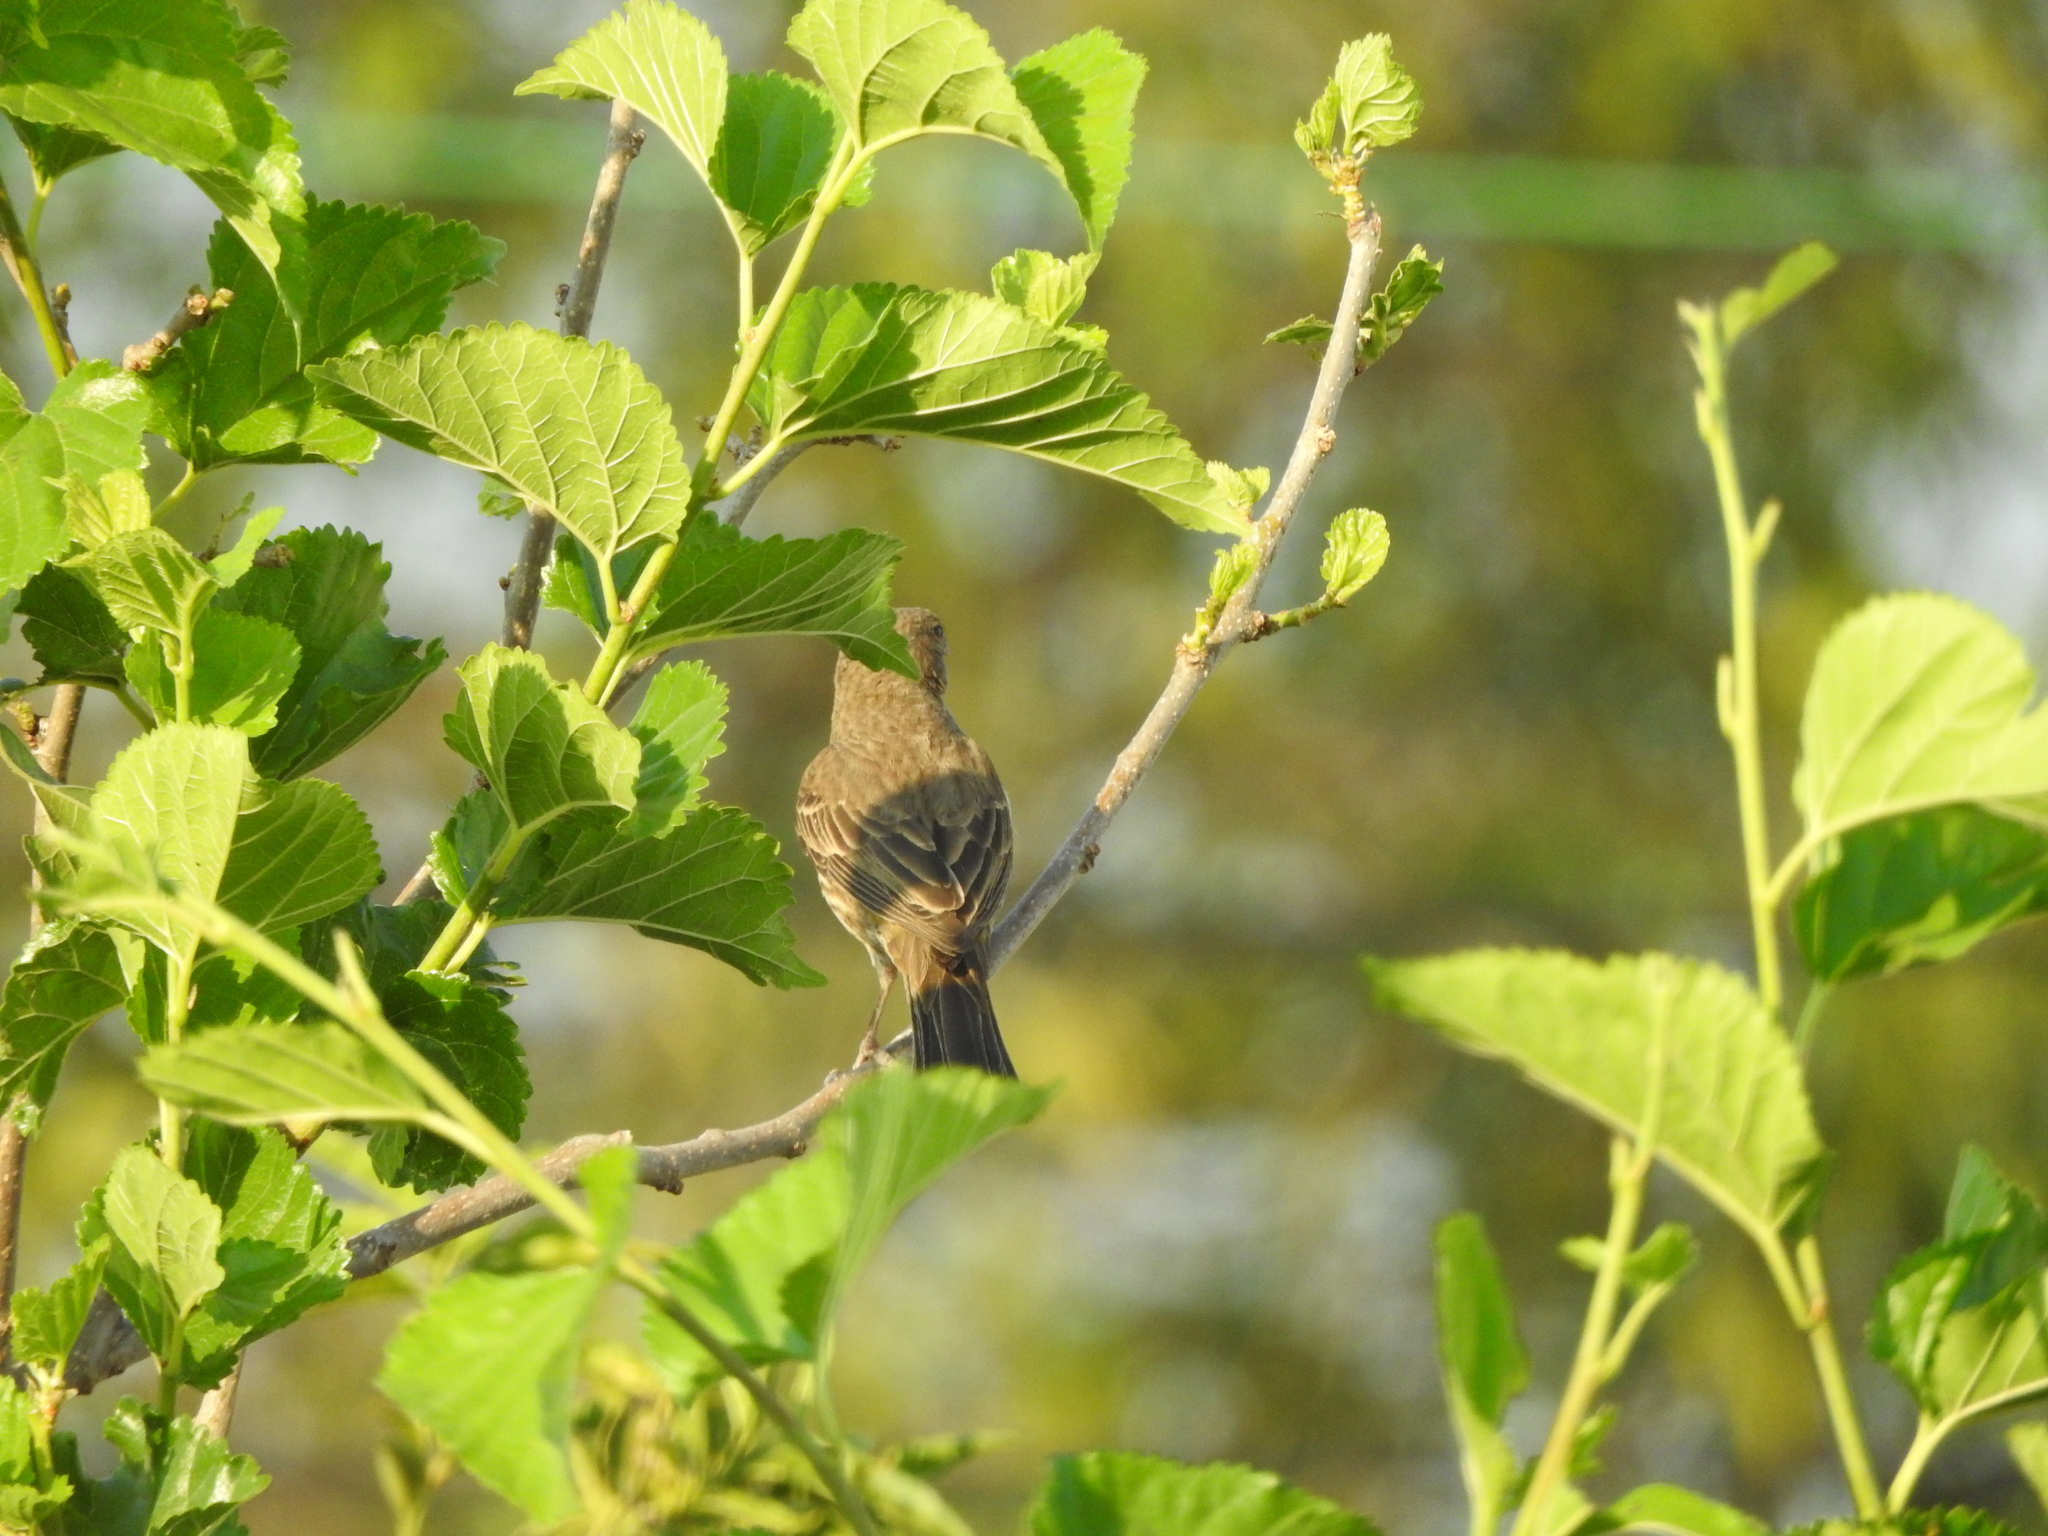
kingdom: Animalia
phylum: Chordata
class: Aves
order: Passeriformes
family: Fringillidae
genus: Haemorhous
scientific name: Haemorhous mexicanus
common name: House finch
